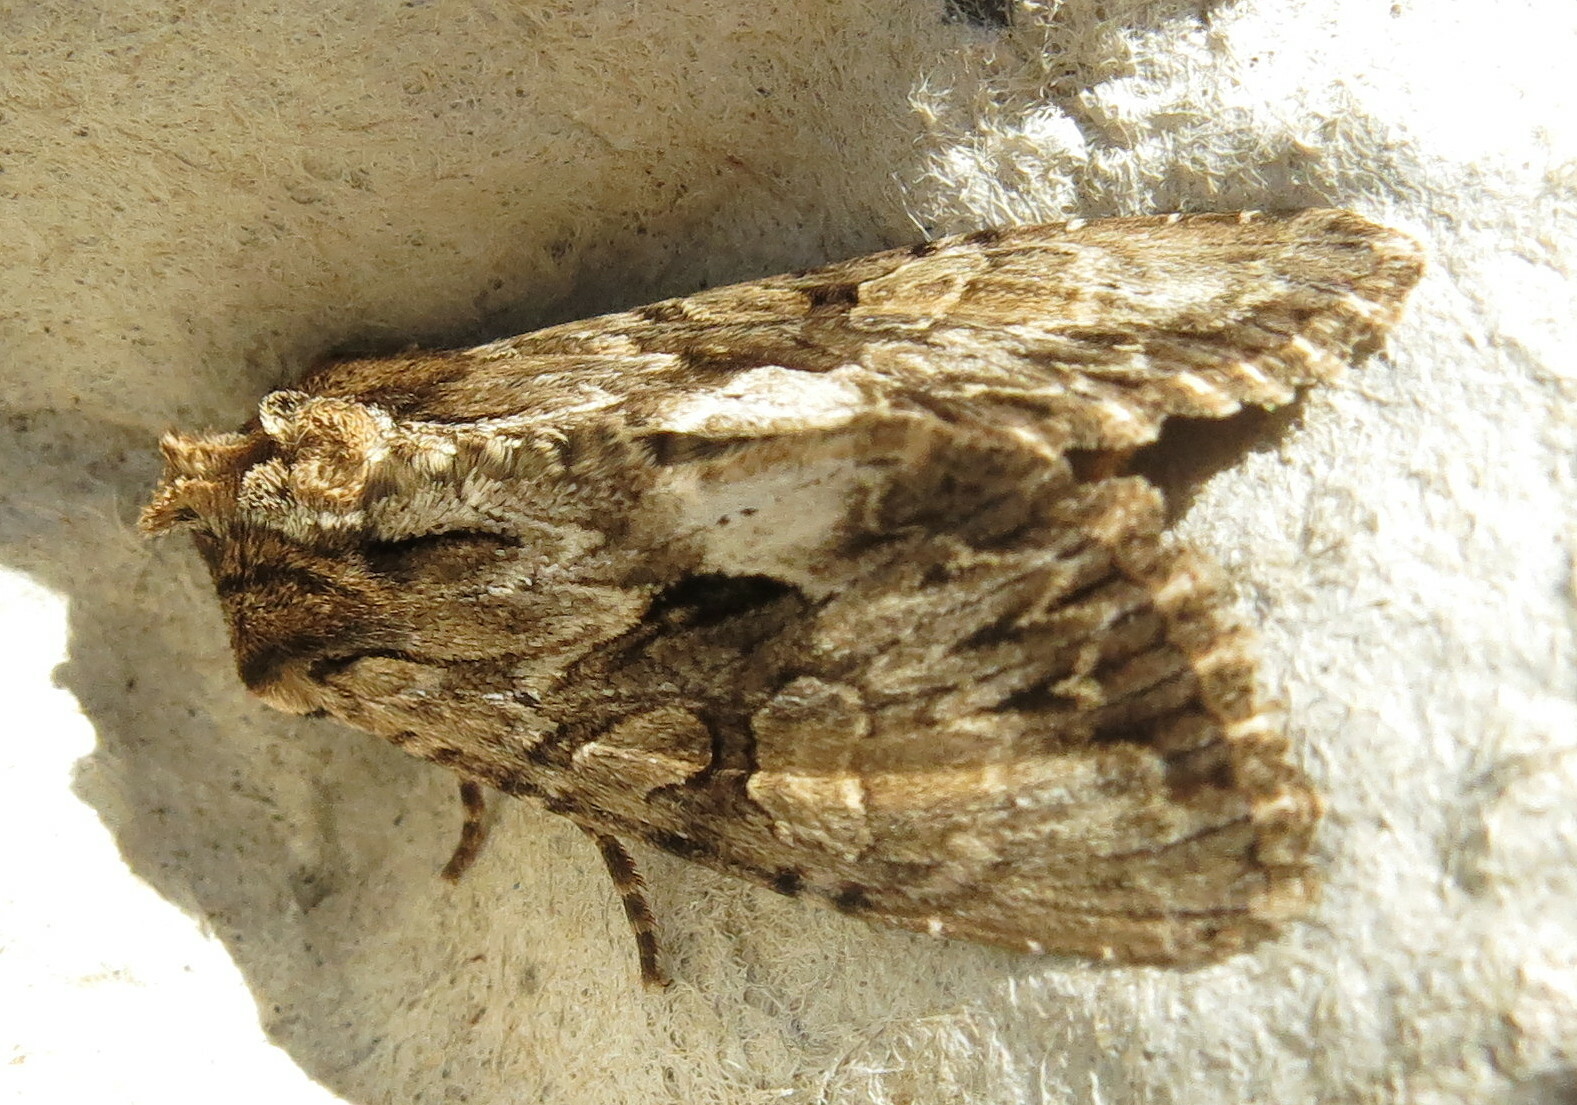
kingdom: Animalia
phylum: Arthropoda
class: Insecta
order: Lepidoptera
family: Noctuidae
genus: Apamea
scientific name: Apamea monoglypha
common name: Dark arches
